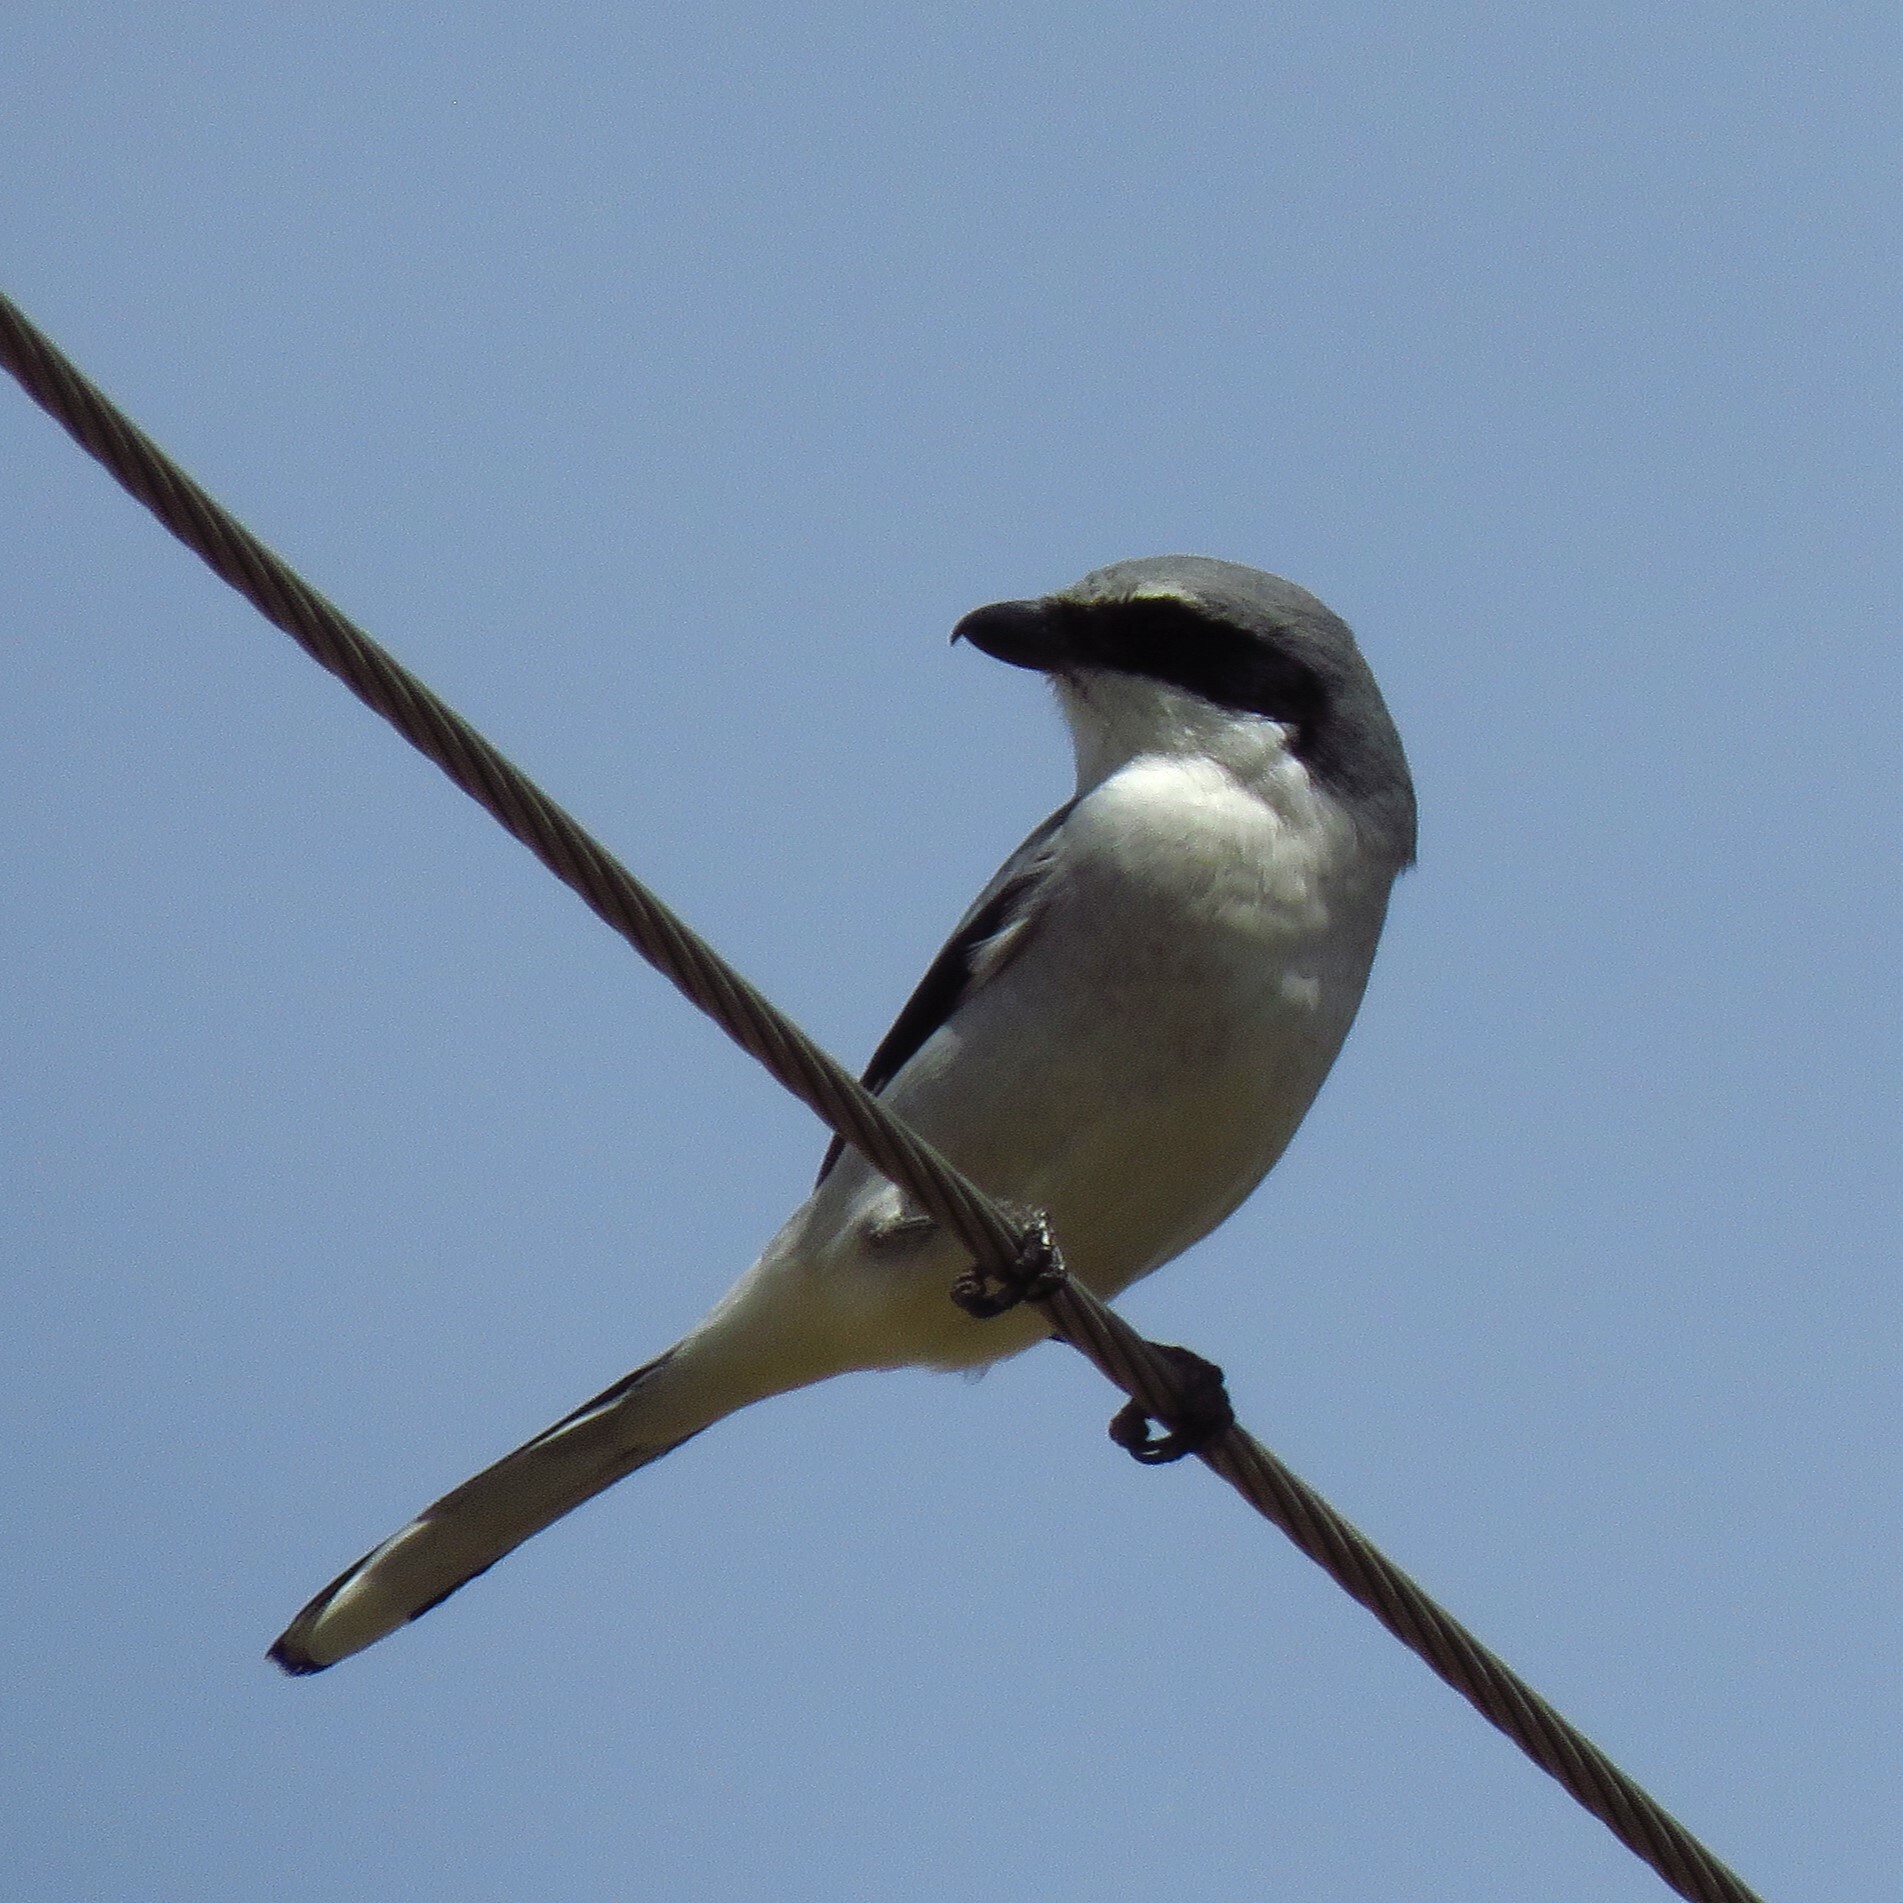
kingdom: Animalia
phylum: Chordata
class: Aves
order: Passeriformes
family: Laniidae
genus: Lanius
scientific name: Lanius ludovicianus
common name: Loggerhead shrike
